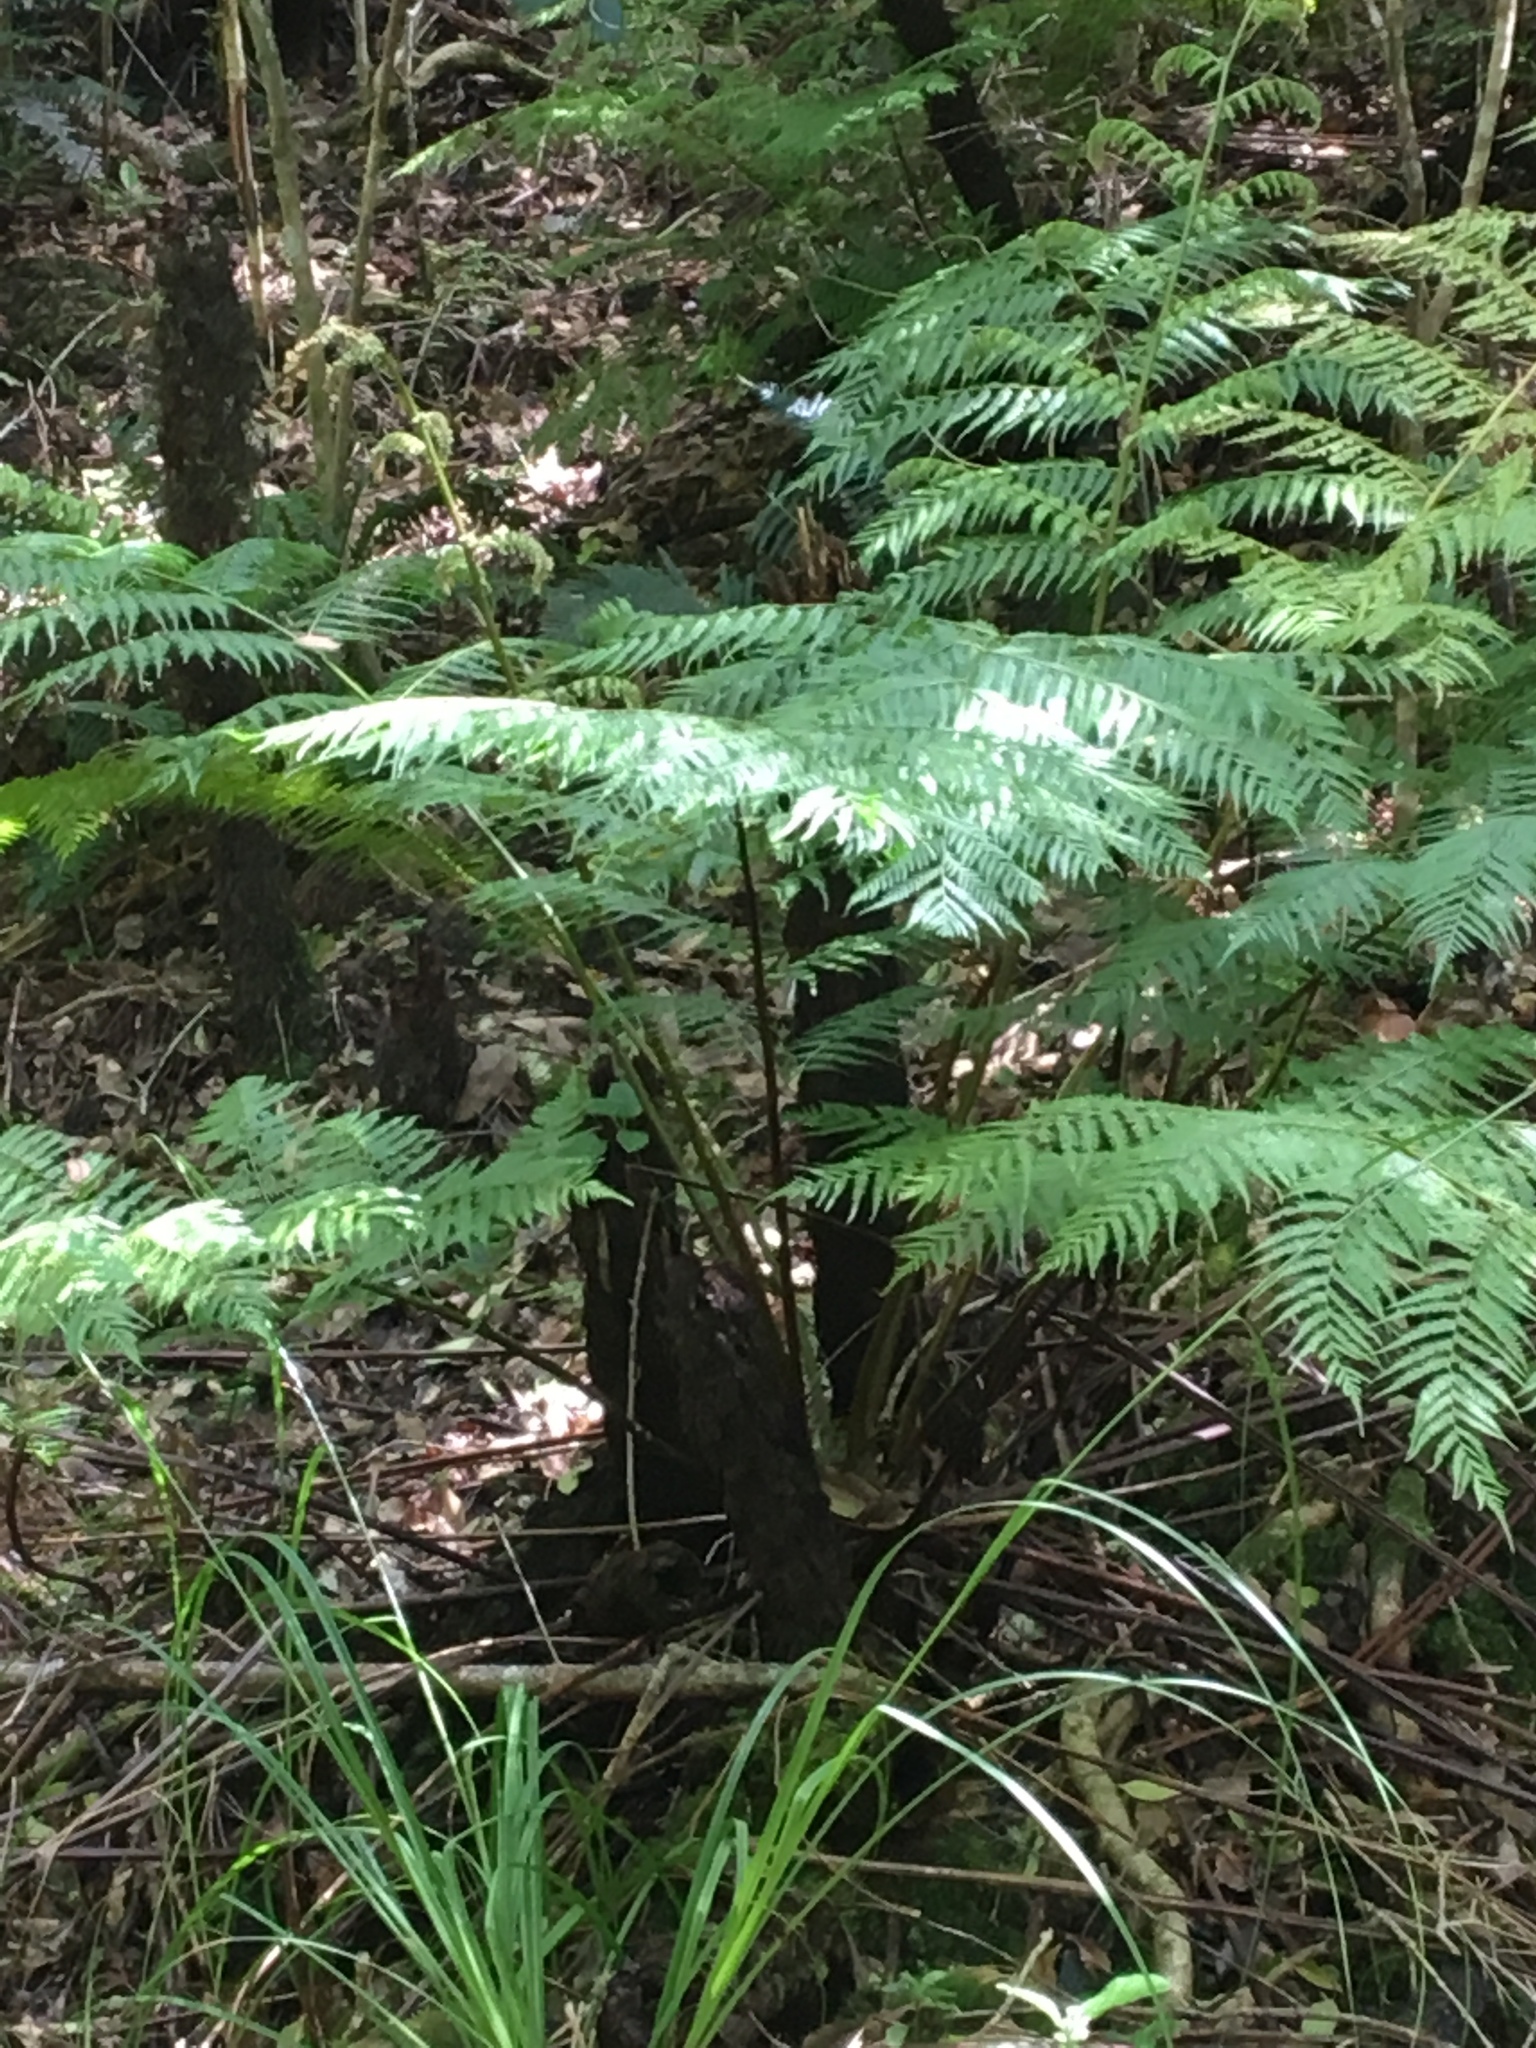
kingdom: Plantae
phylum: Tracheophyta
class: Polypodiopsida
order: Cyatheales
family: Cyatheaceae
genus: Gymnosphaera
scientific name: Gymnosphaera capensis
